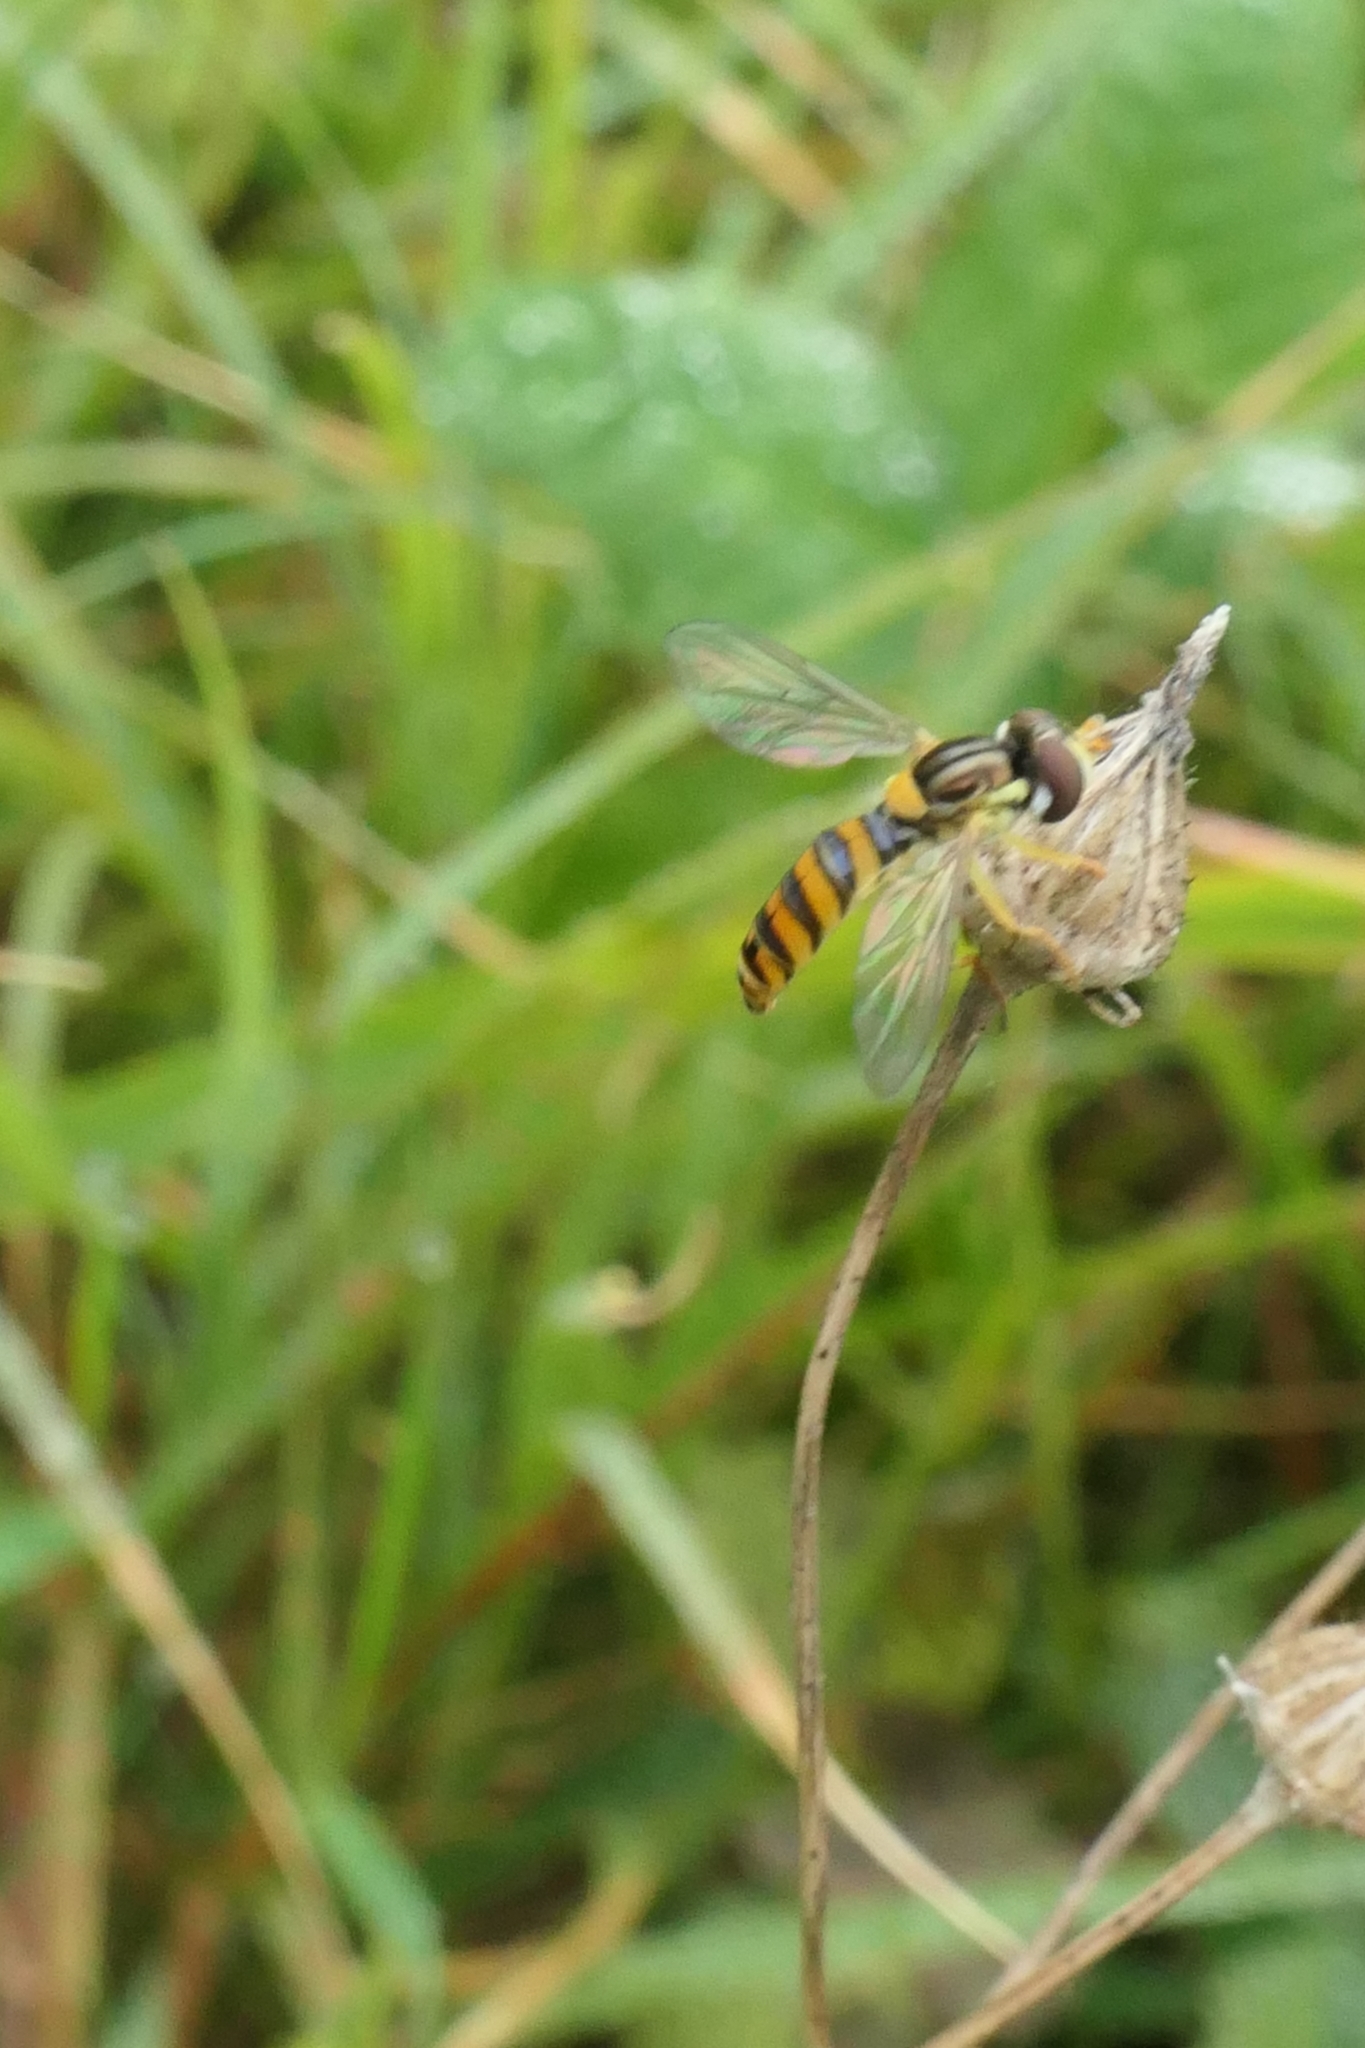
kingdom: Animalia
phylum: Arthropoda
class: Insecta
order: Diptera
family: Syrphidae
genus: Sphaerophoria
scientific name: Sphaerophoria macrogaster
